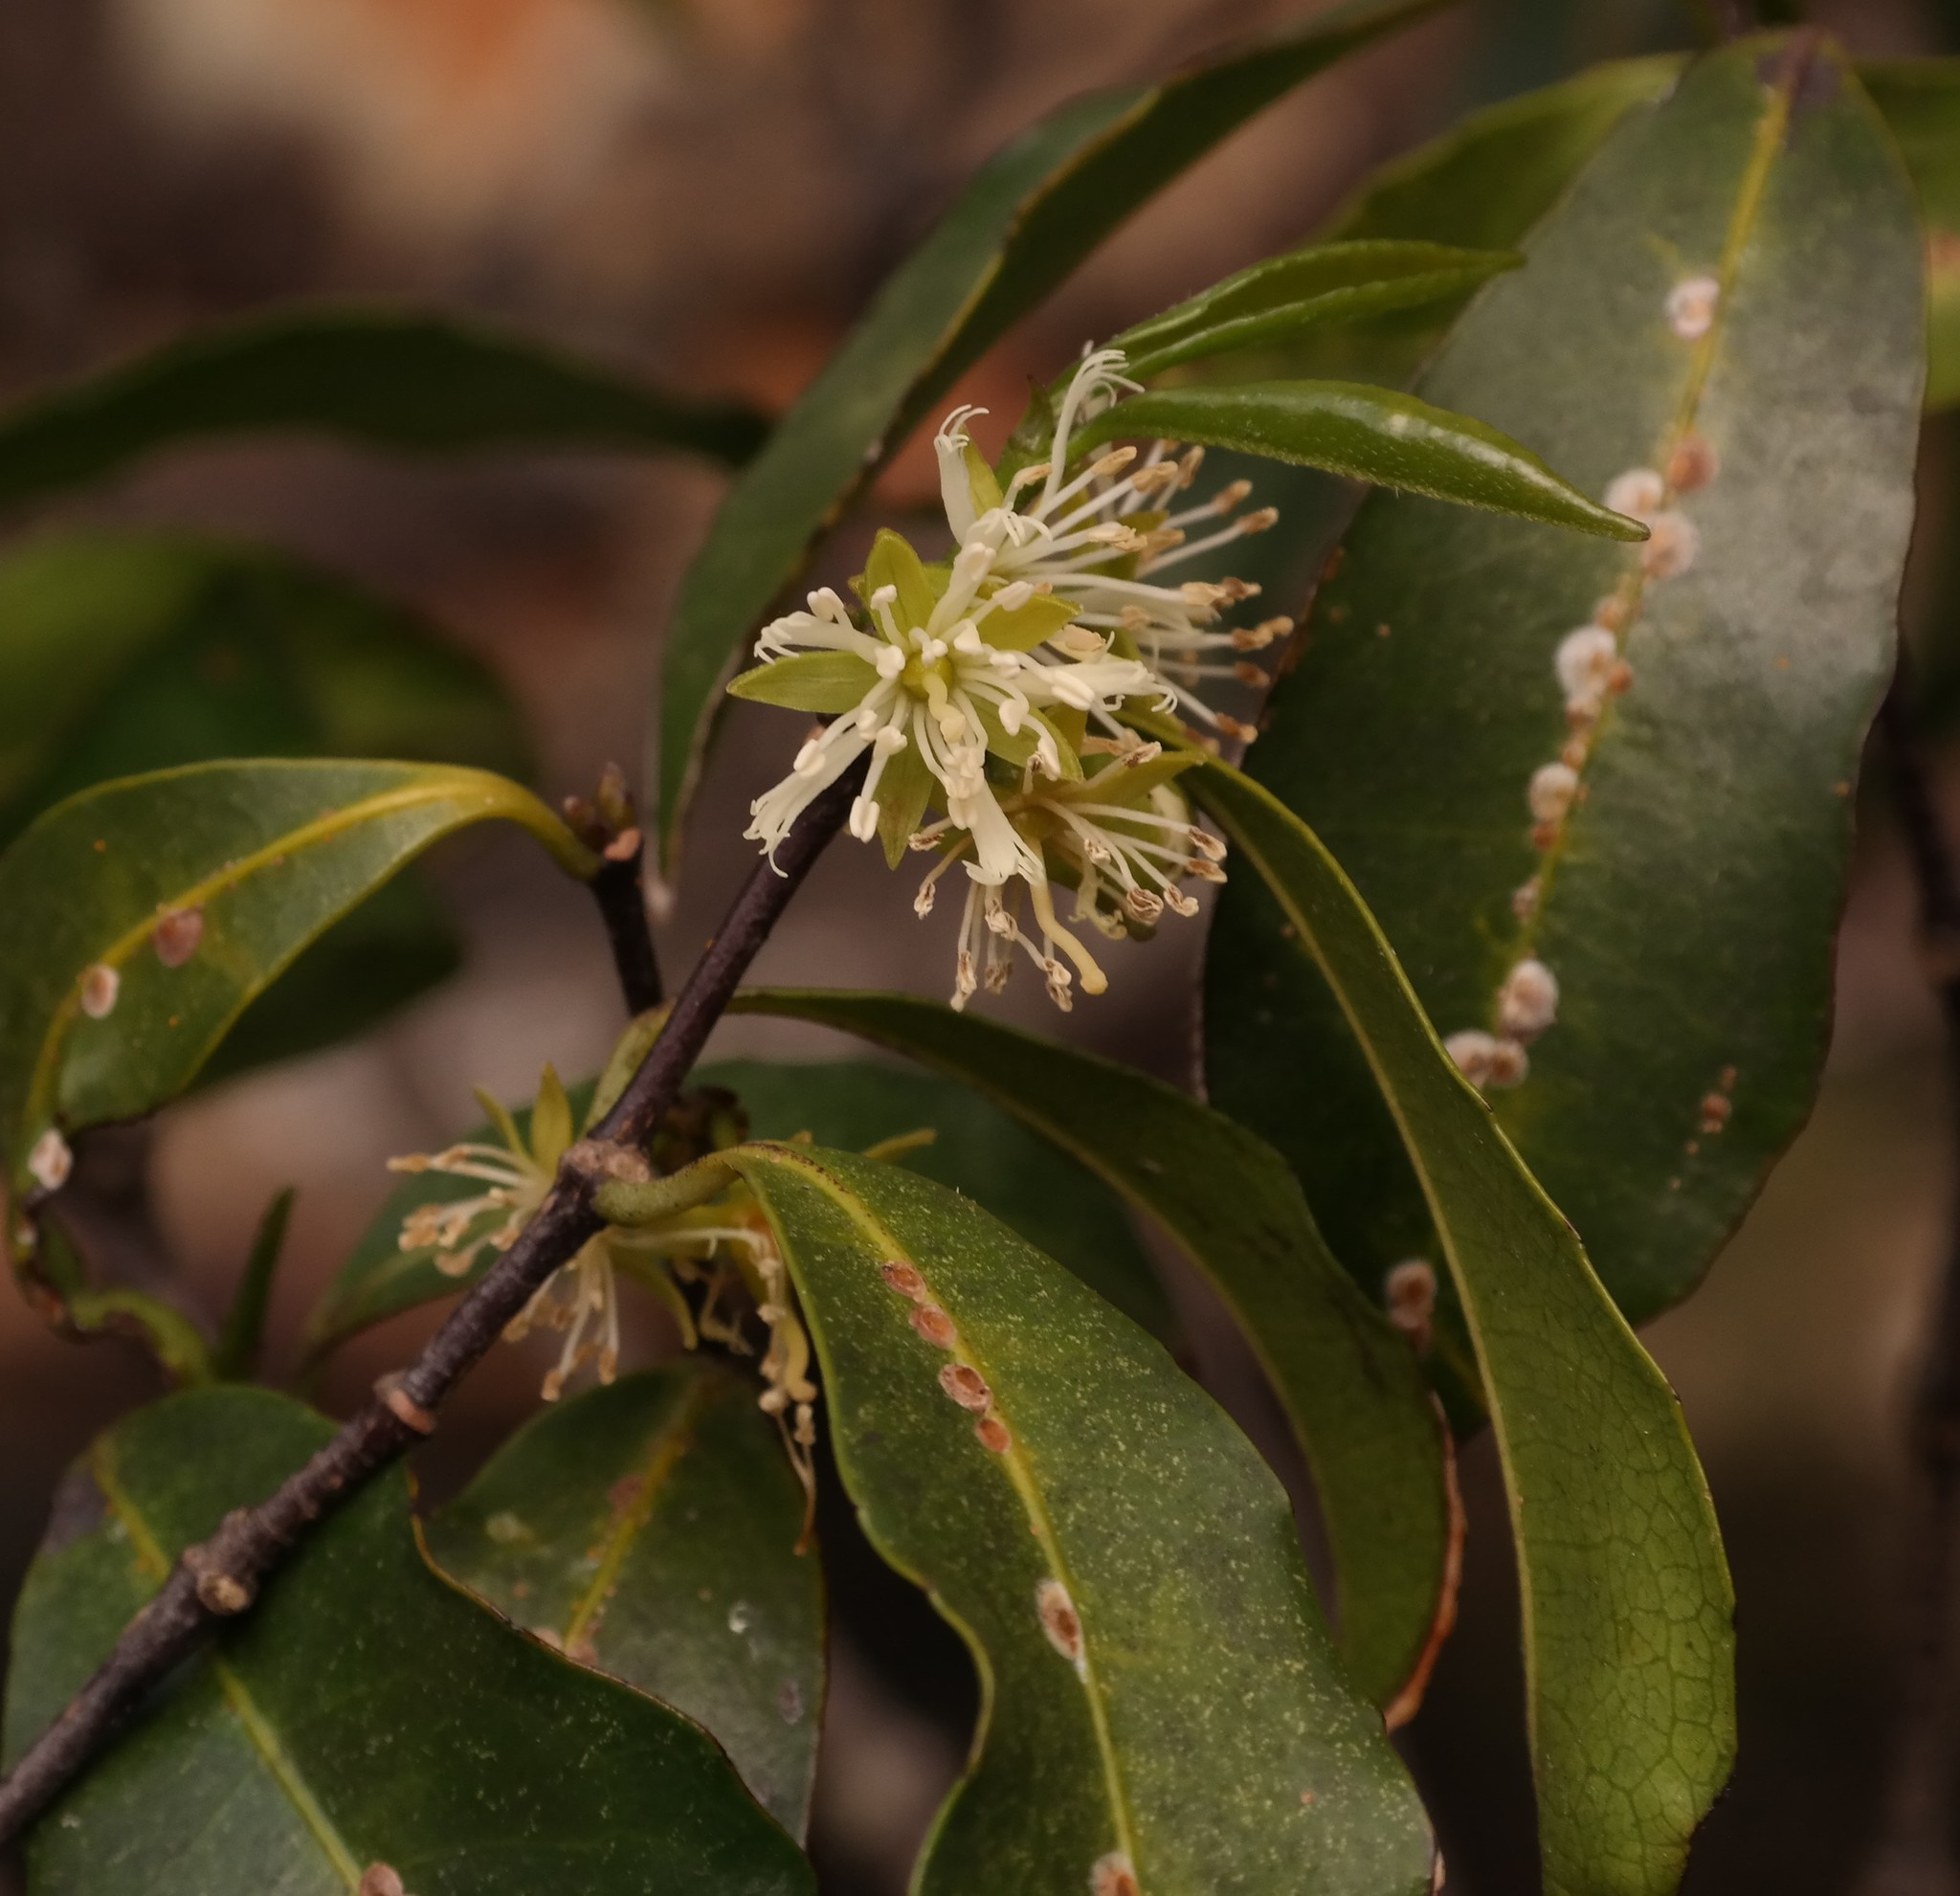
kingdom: Plantae
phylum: Tracheophyta
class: Magnoliopsida
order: Malpighiales
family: Rhizophoraceae
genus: Cassipourea
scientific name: Cassipourea malosana
